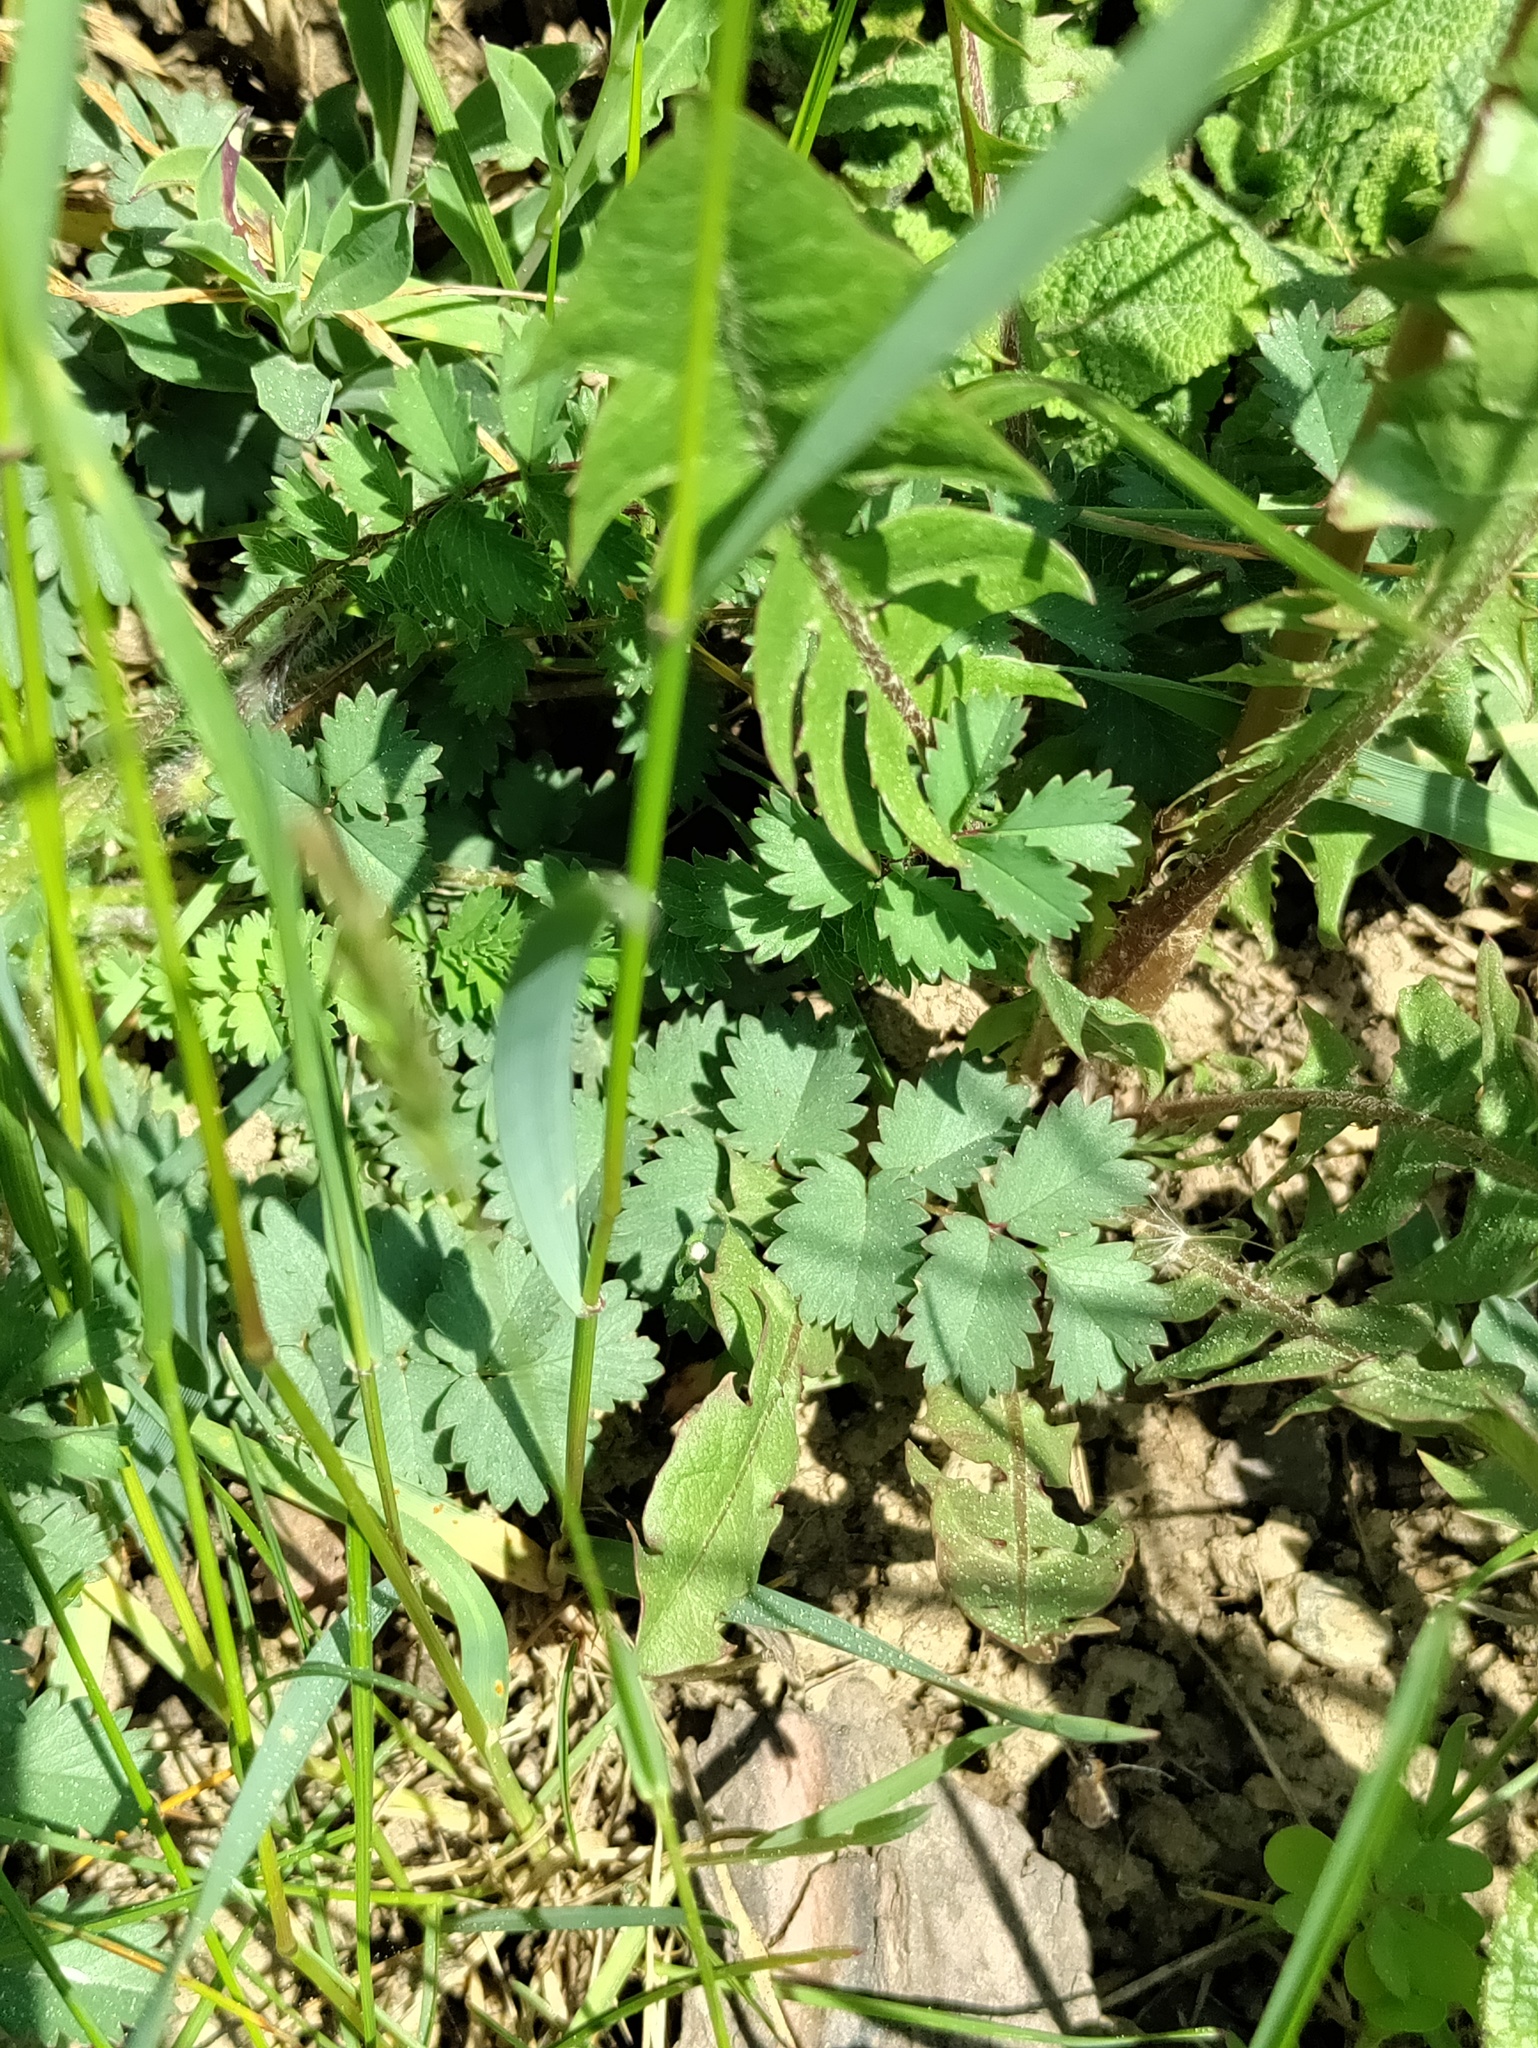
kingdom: Plantae
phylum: Tracheophyta
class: Magnoliopsida
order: Rosales
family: Rosaceae
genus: Poterium
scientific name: Poterium sanguisorba
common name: Salad burnet
